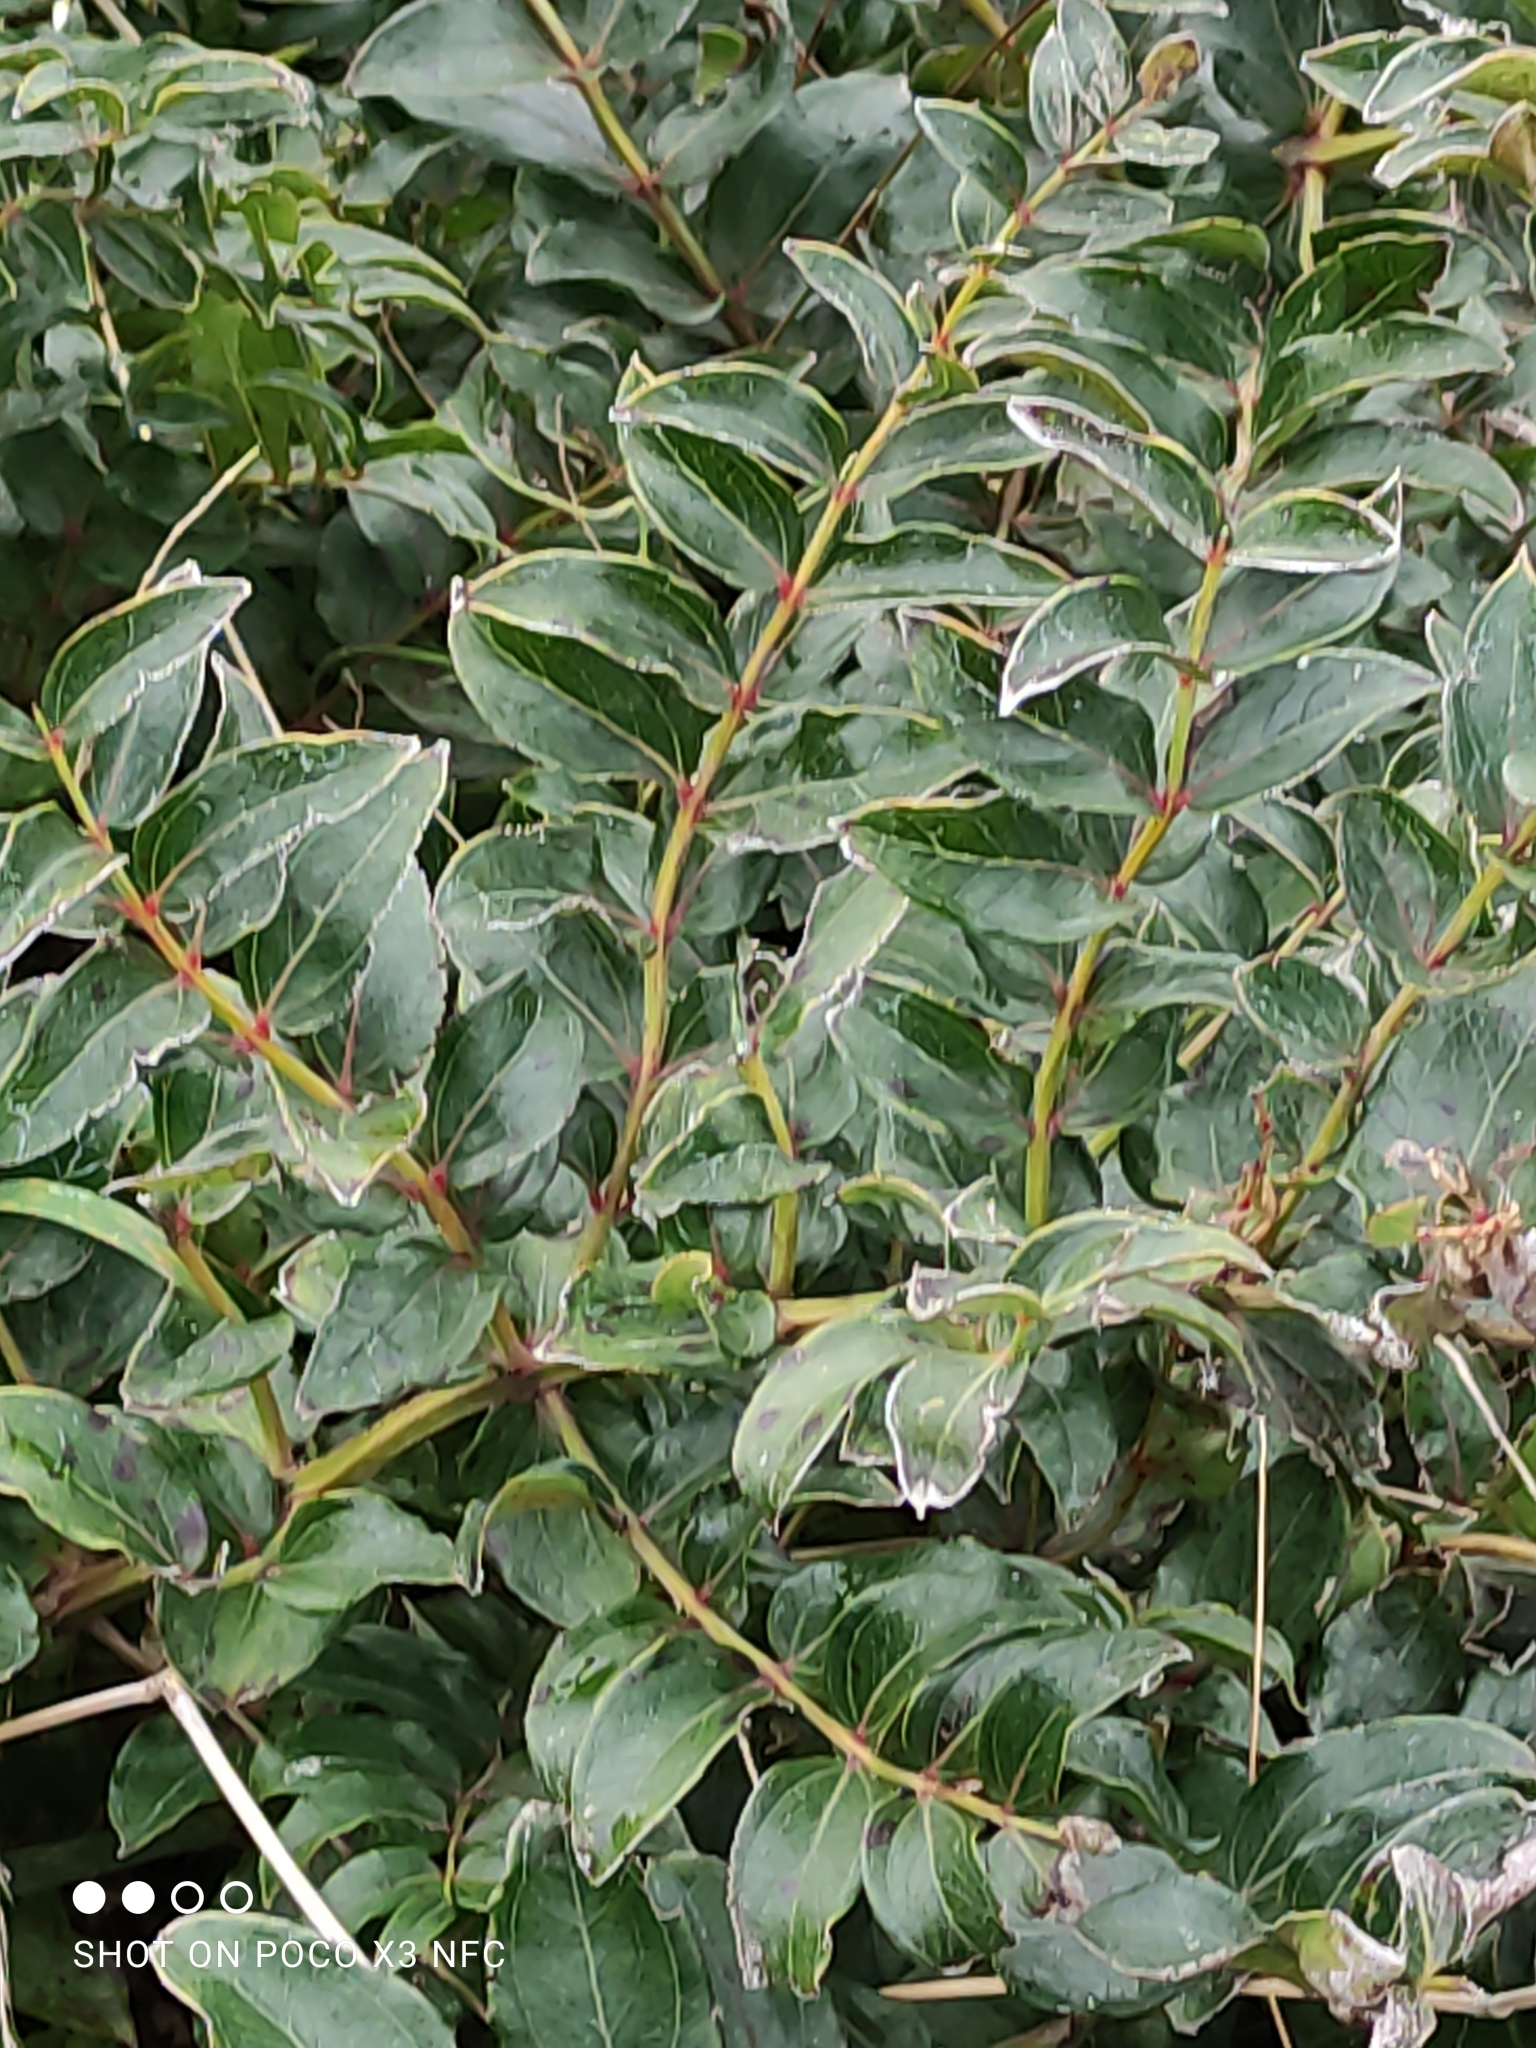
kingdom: Plantae
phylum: Tracheophyta
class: Magnoliopsida
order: Cucurbitales
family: Coriariaceae
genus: Coriaria
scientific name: Coriaria sarmentosa
